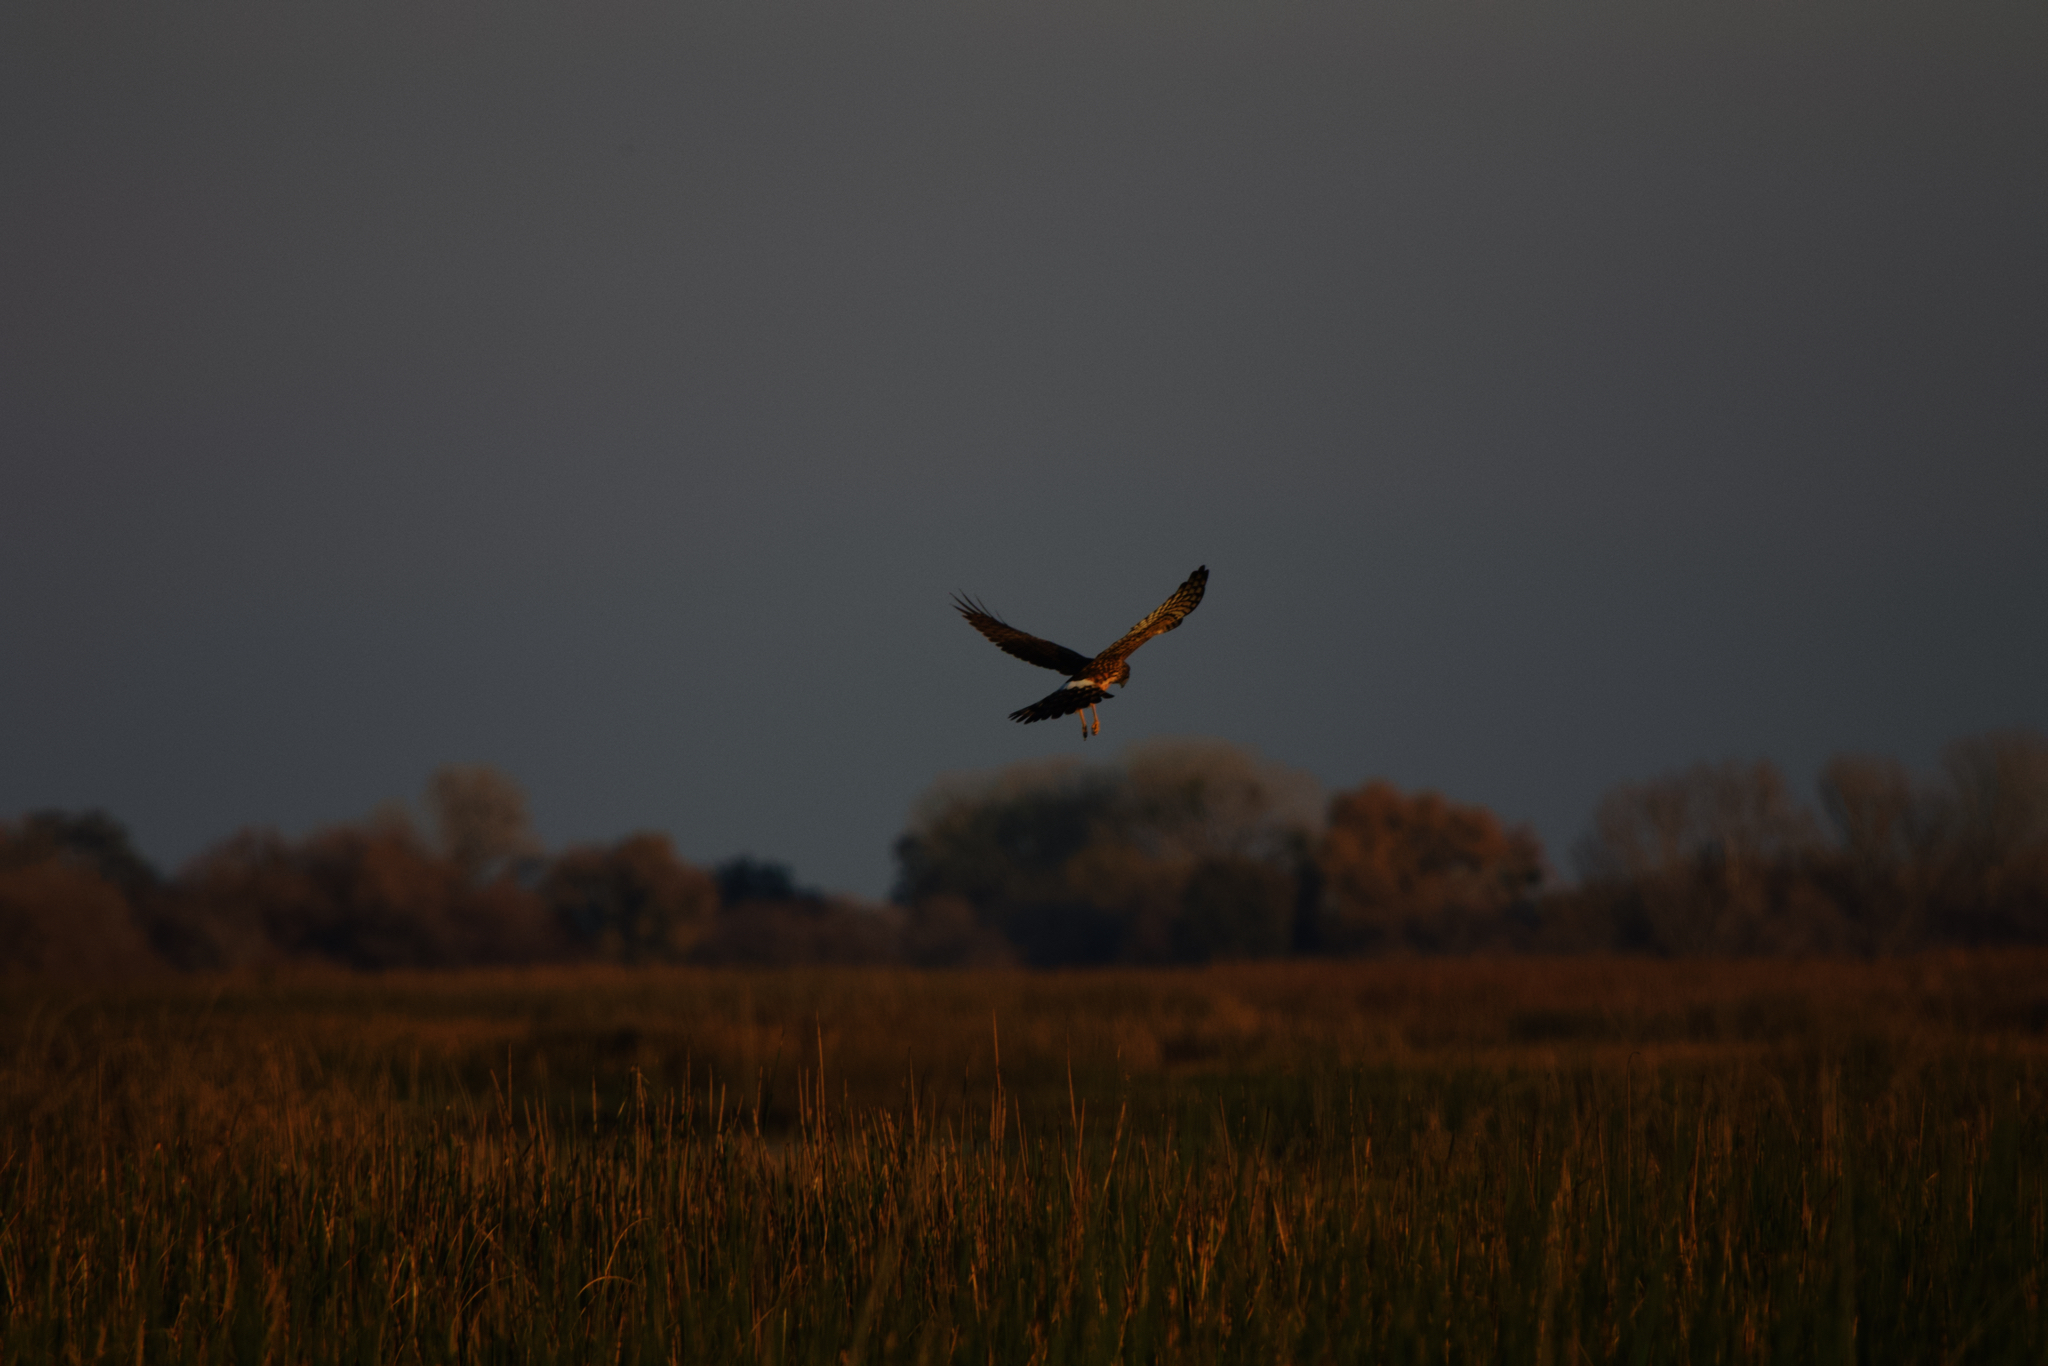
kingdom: Animalia
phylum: Chordata
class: Aves
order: Accipitriformes
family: Accipitridae
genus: Circus
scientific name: Circus cyaneus
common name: Hen harrier
